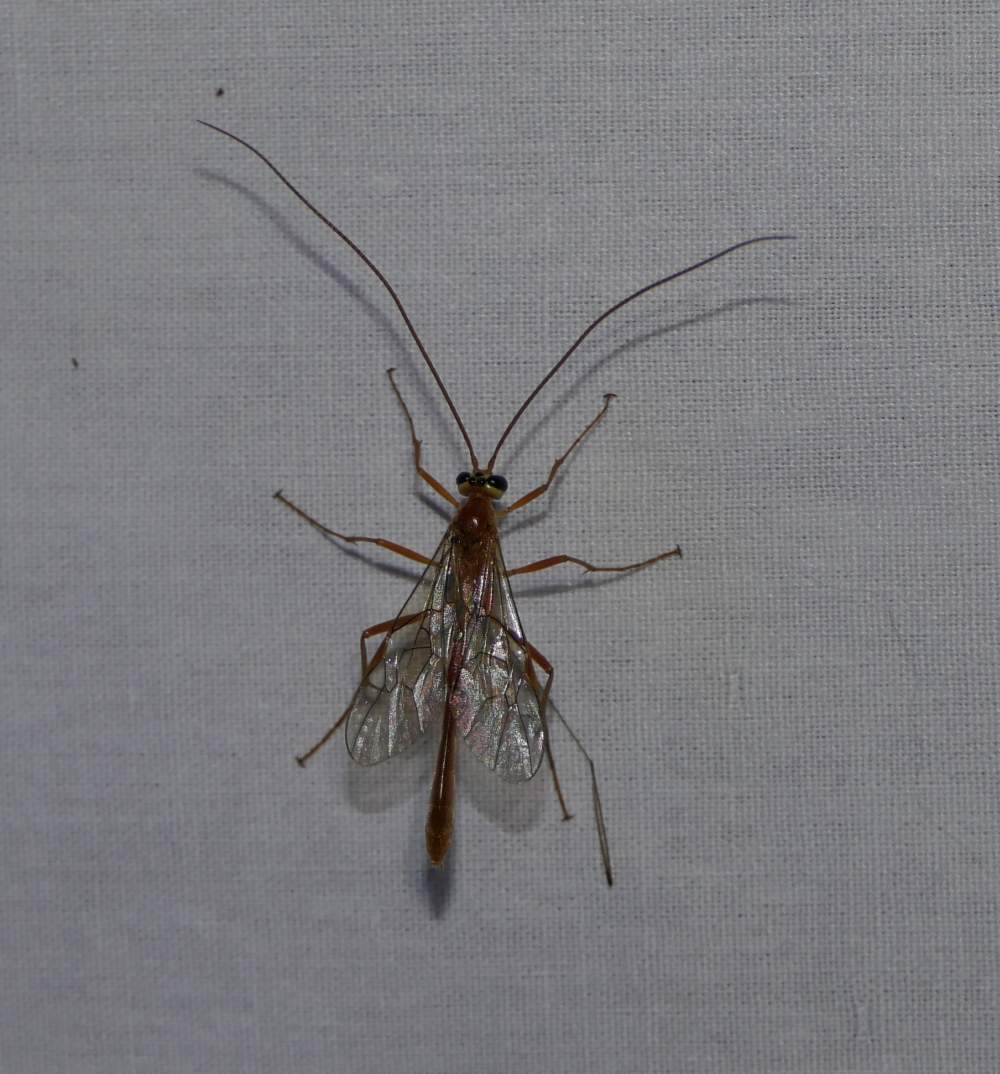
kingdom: Animalia
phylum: Arthropoda
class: Insecta
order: Hymenoptera
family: Ichneumonidae
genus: Ophion
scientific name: Ophion
